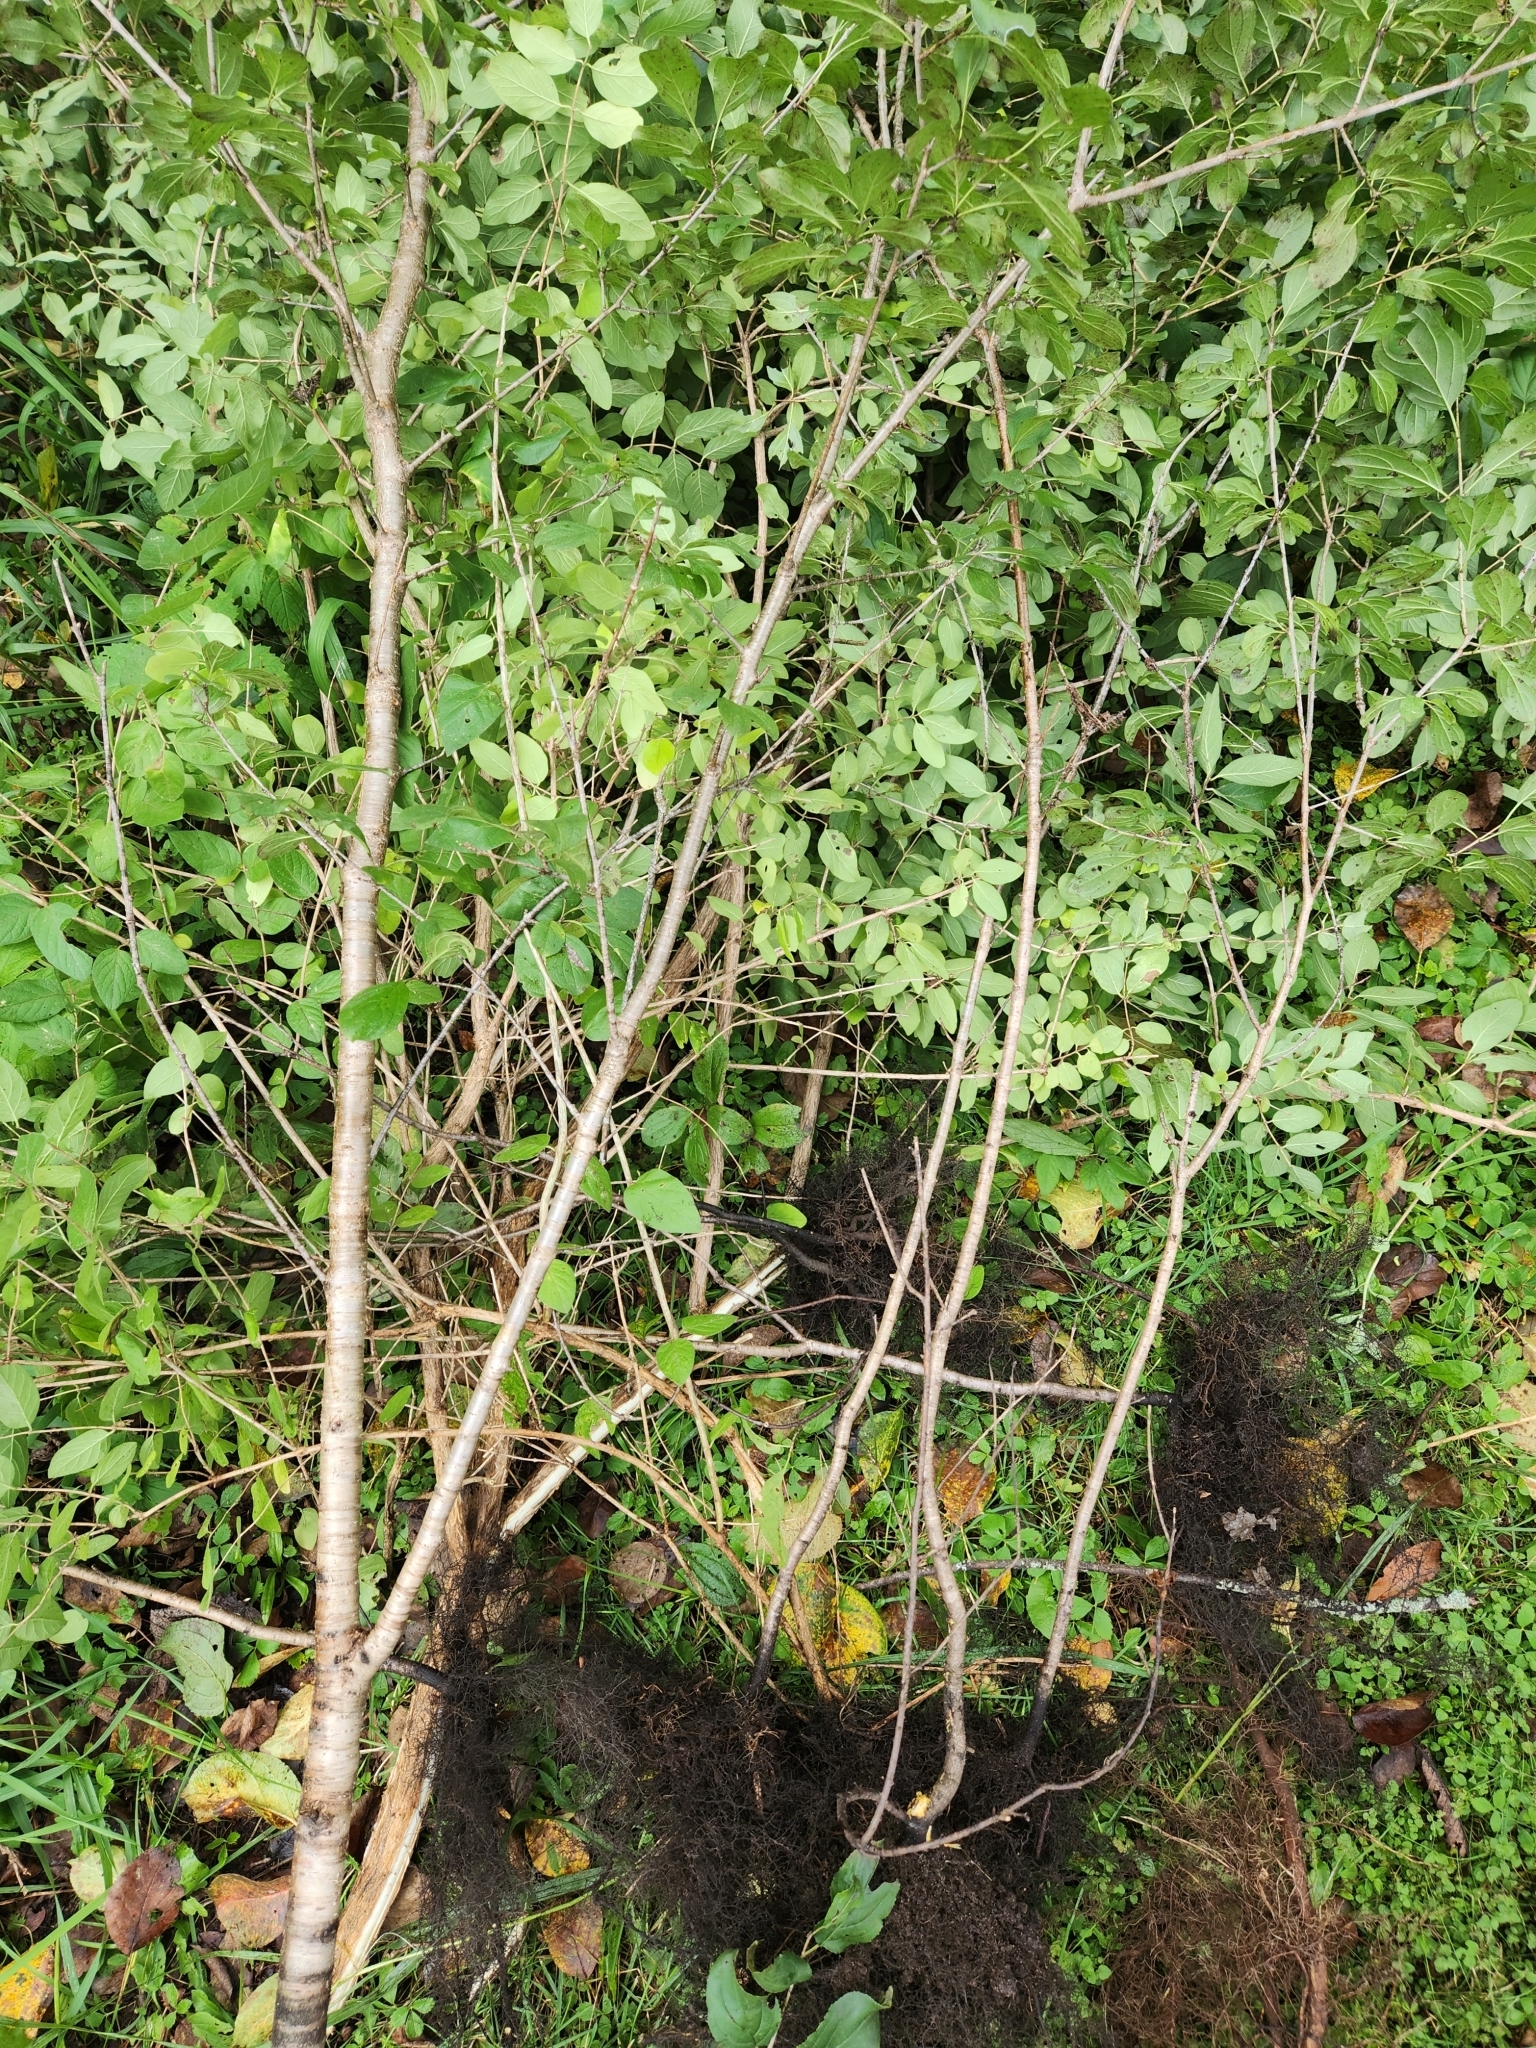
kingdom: Plantae
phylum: Tracheophyta
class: Magnoliopsida
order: Rosales
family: Rhamnaceae
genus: Rhamnus
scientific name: Rhamnus cathartica
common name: Common buckthorn
